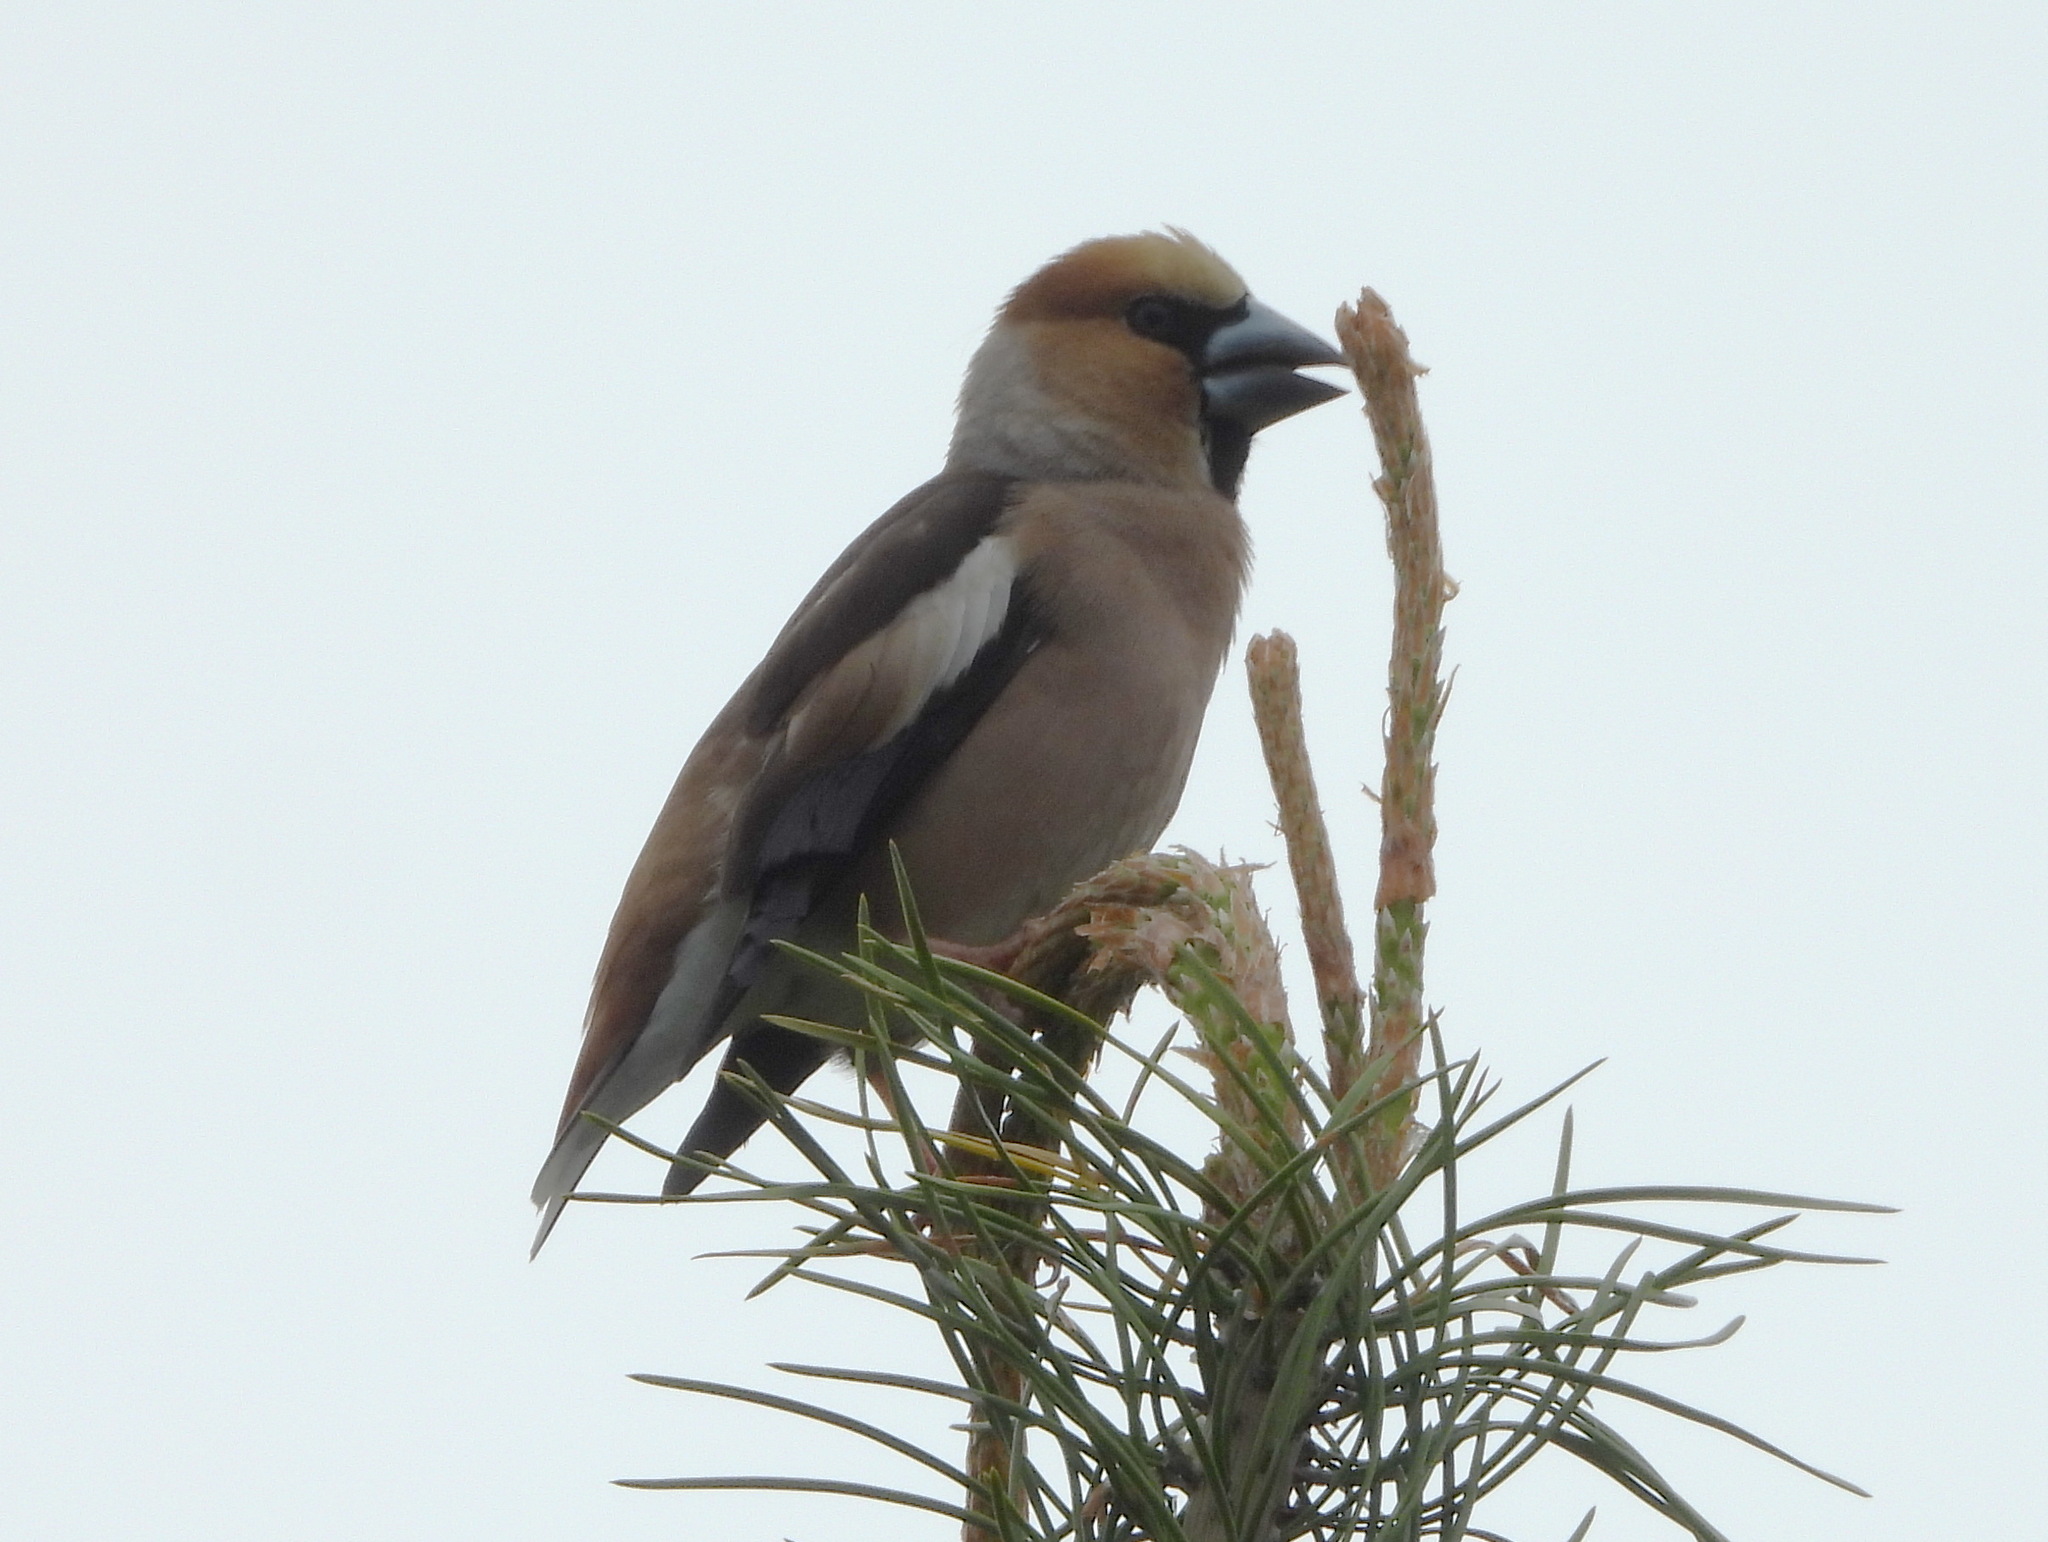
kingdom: Animalia
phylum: Chordata
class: Aves
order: Passeriformes
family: Fringillidae
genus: Coccothraustes
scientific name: Coccothraustes coccothraustes
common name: Hawfinch
